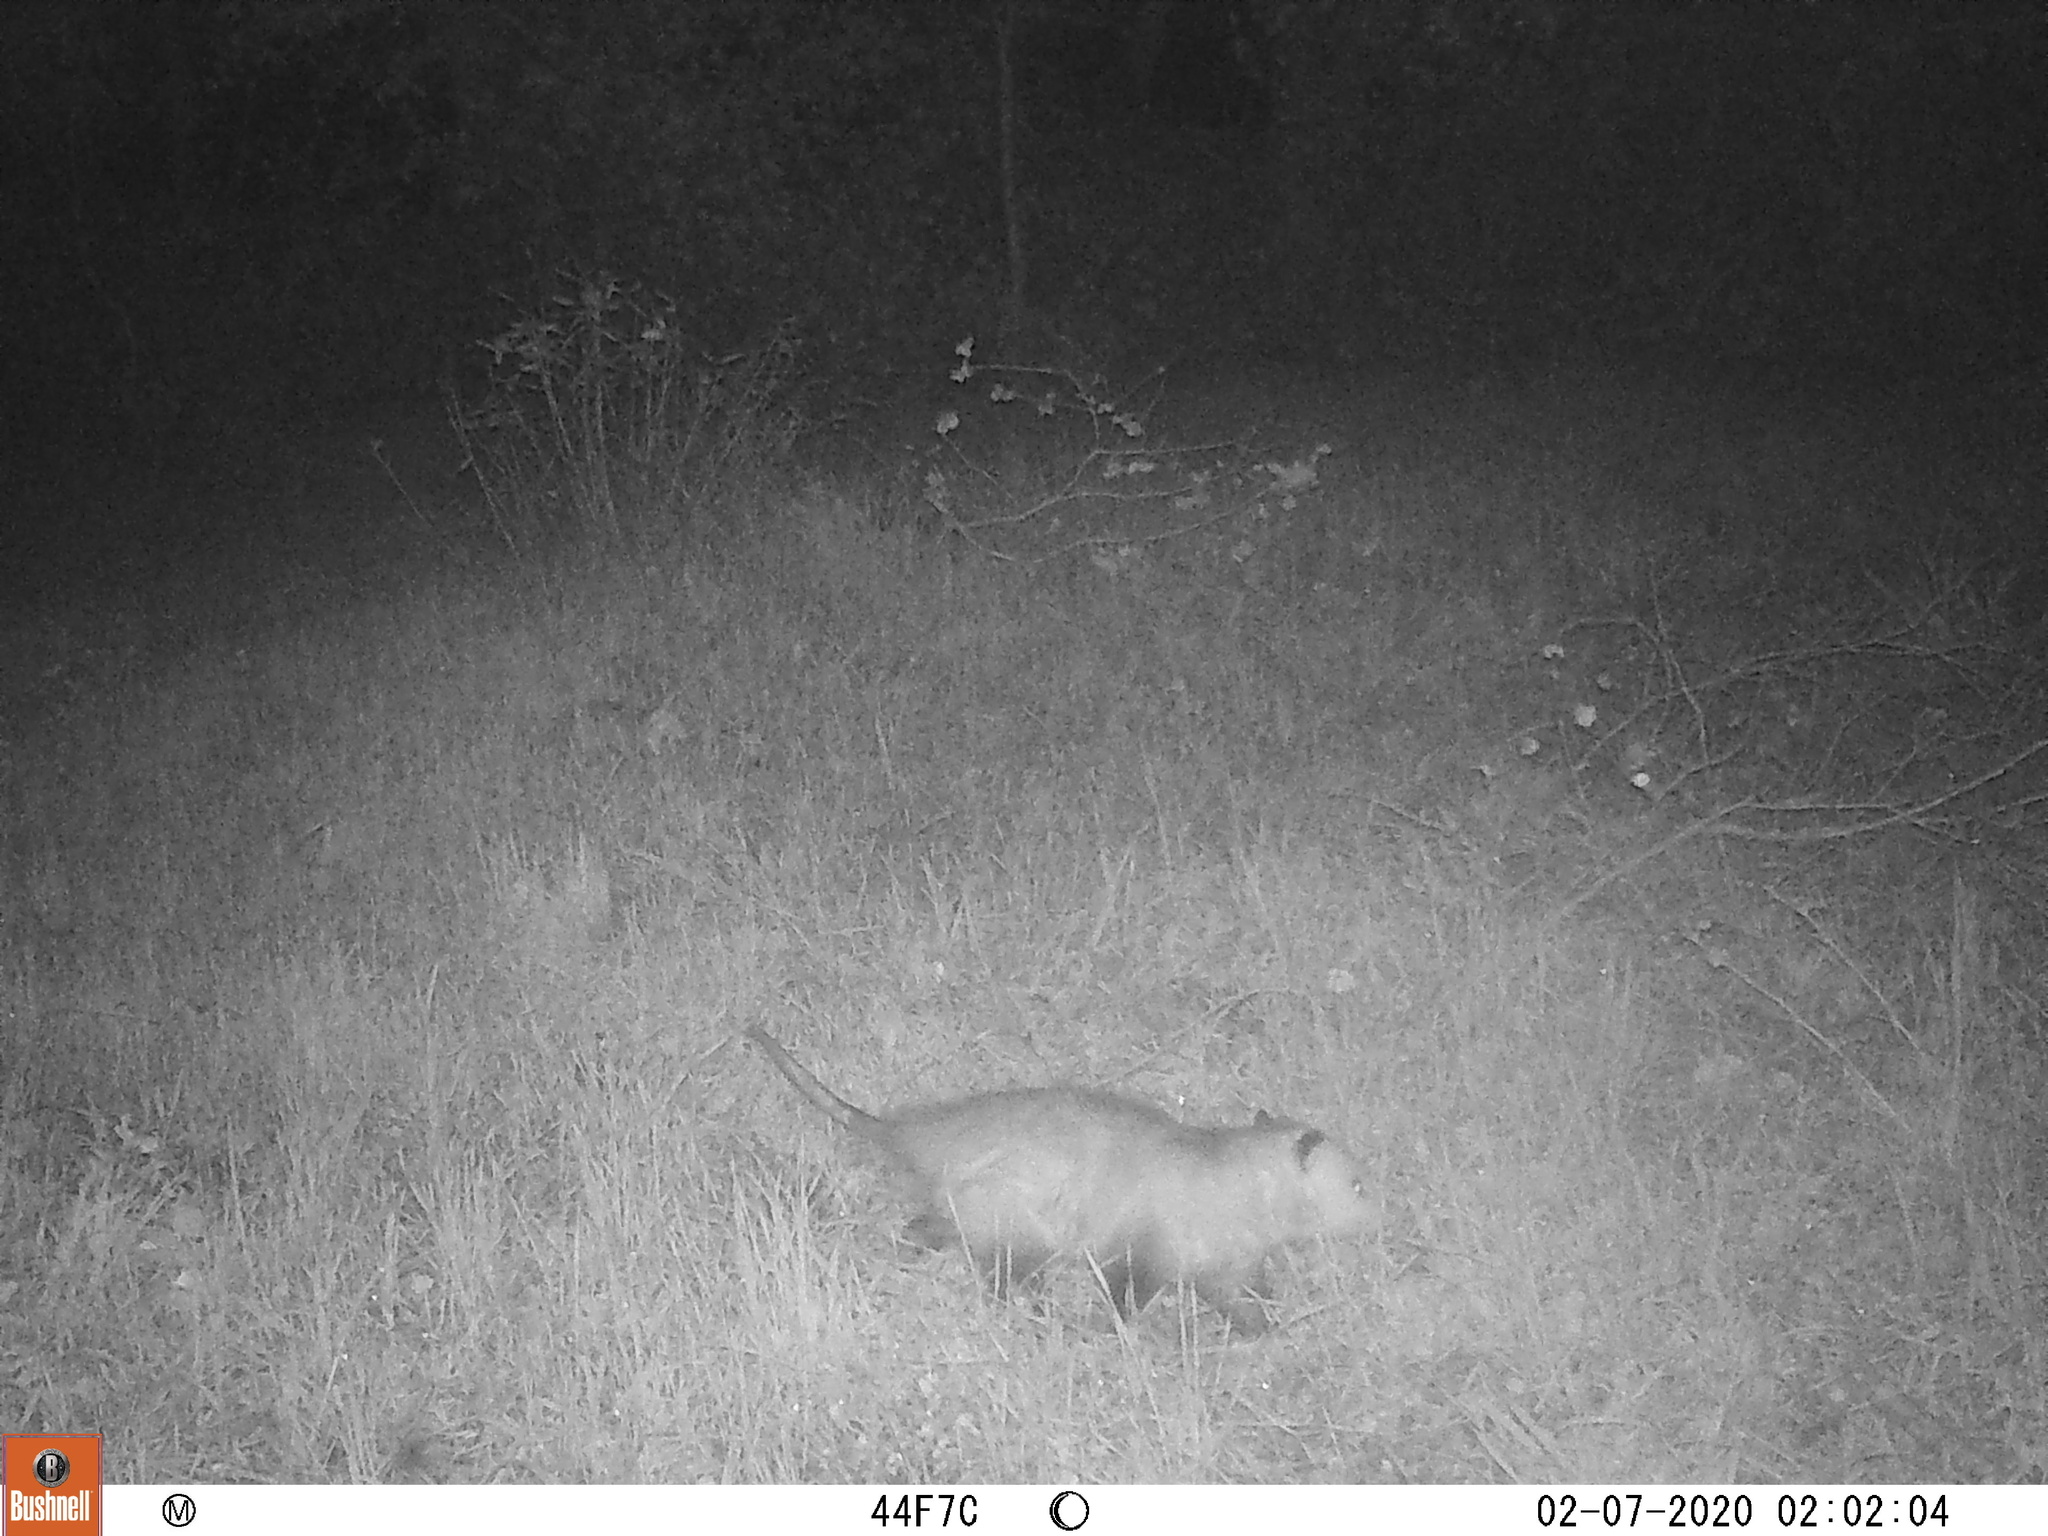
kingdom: Animalia
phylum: Chordata
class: Mammalia
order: Didelphimorphia
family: Didelphidae
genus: Didelphis
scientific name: Didelphis virginiana
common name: Virginia opossum
